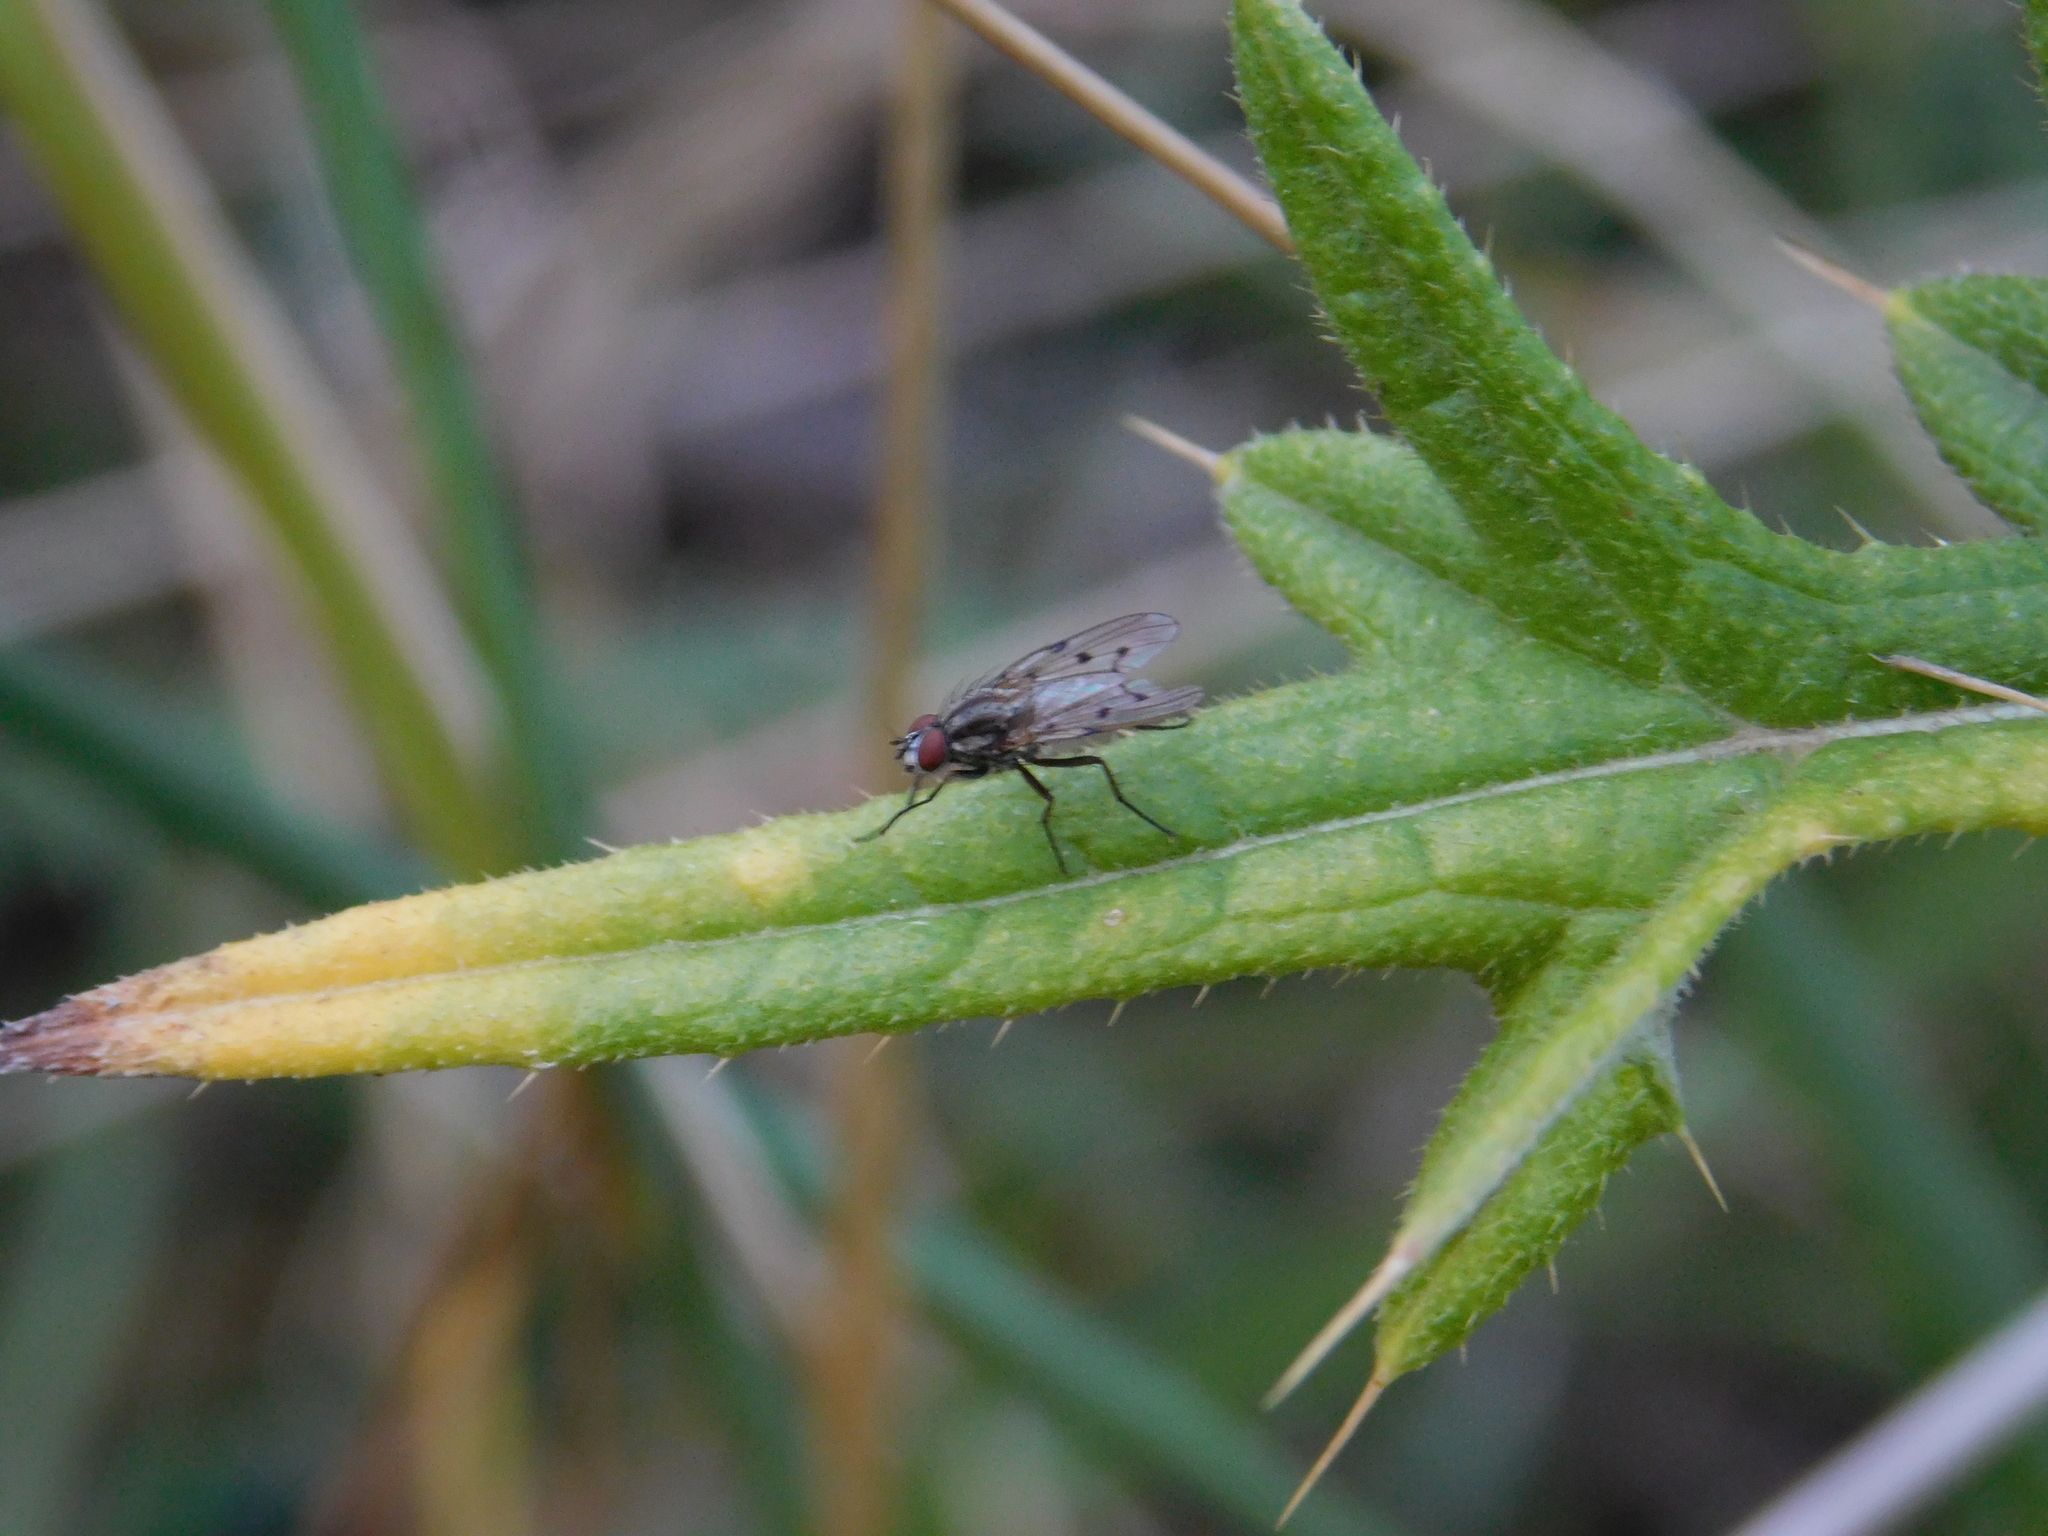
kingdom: Animalia
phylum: Arthropoda
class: Insecta
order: Diptera
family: Anthomyiidae
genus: Anthomyia
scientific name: Anthomyia punctipennis
